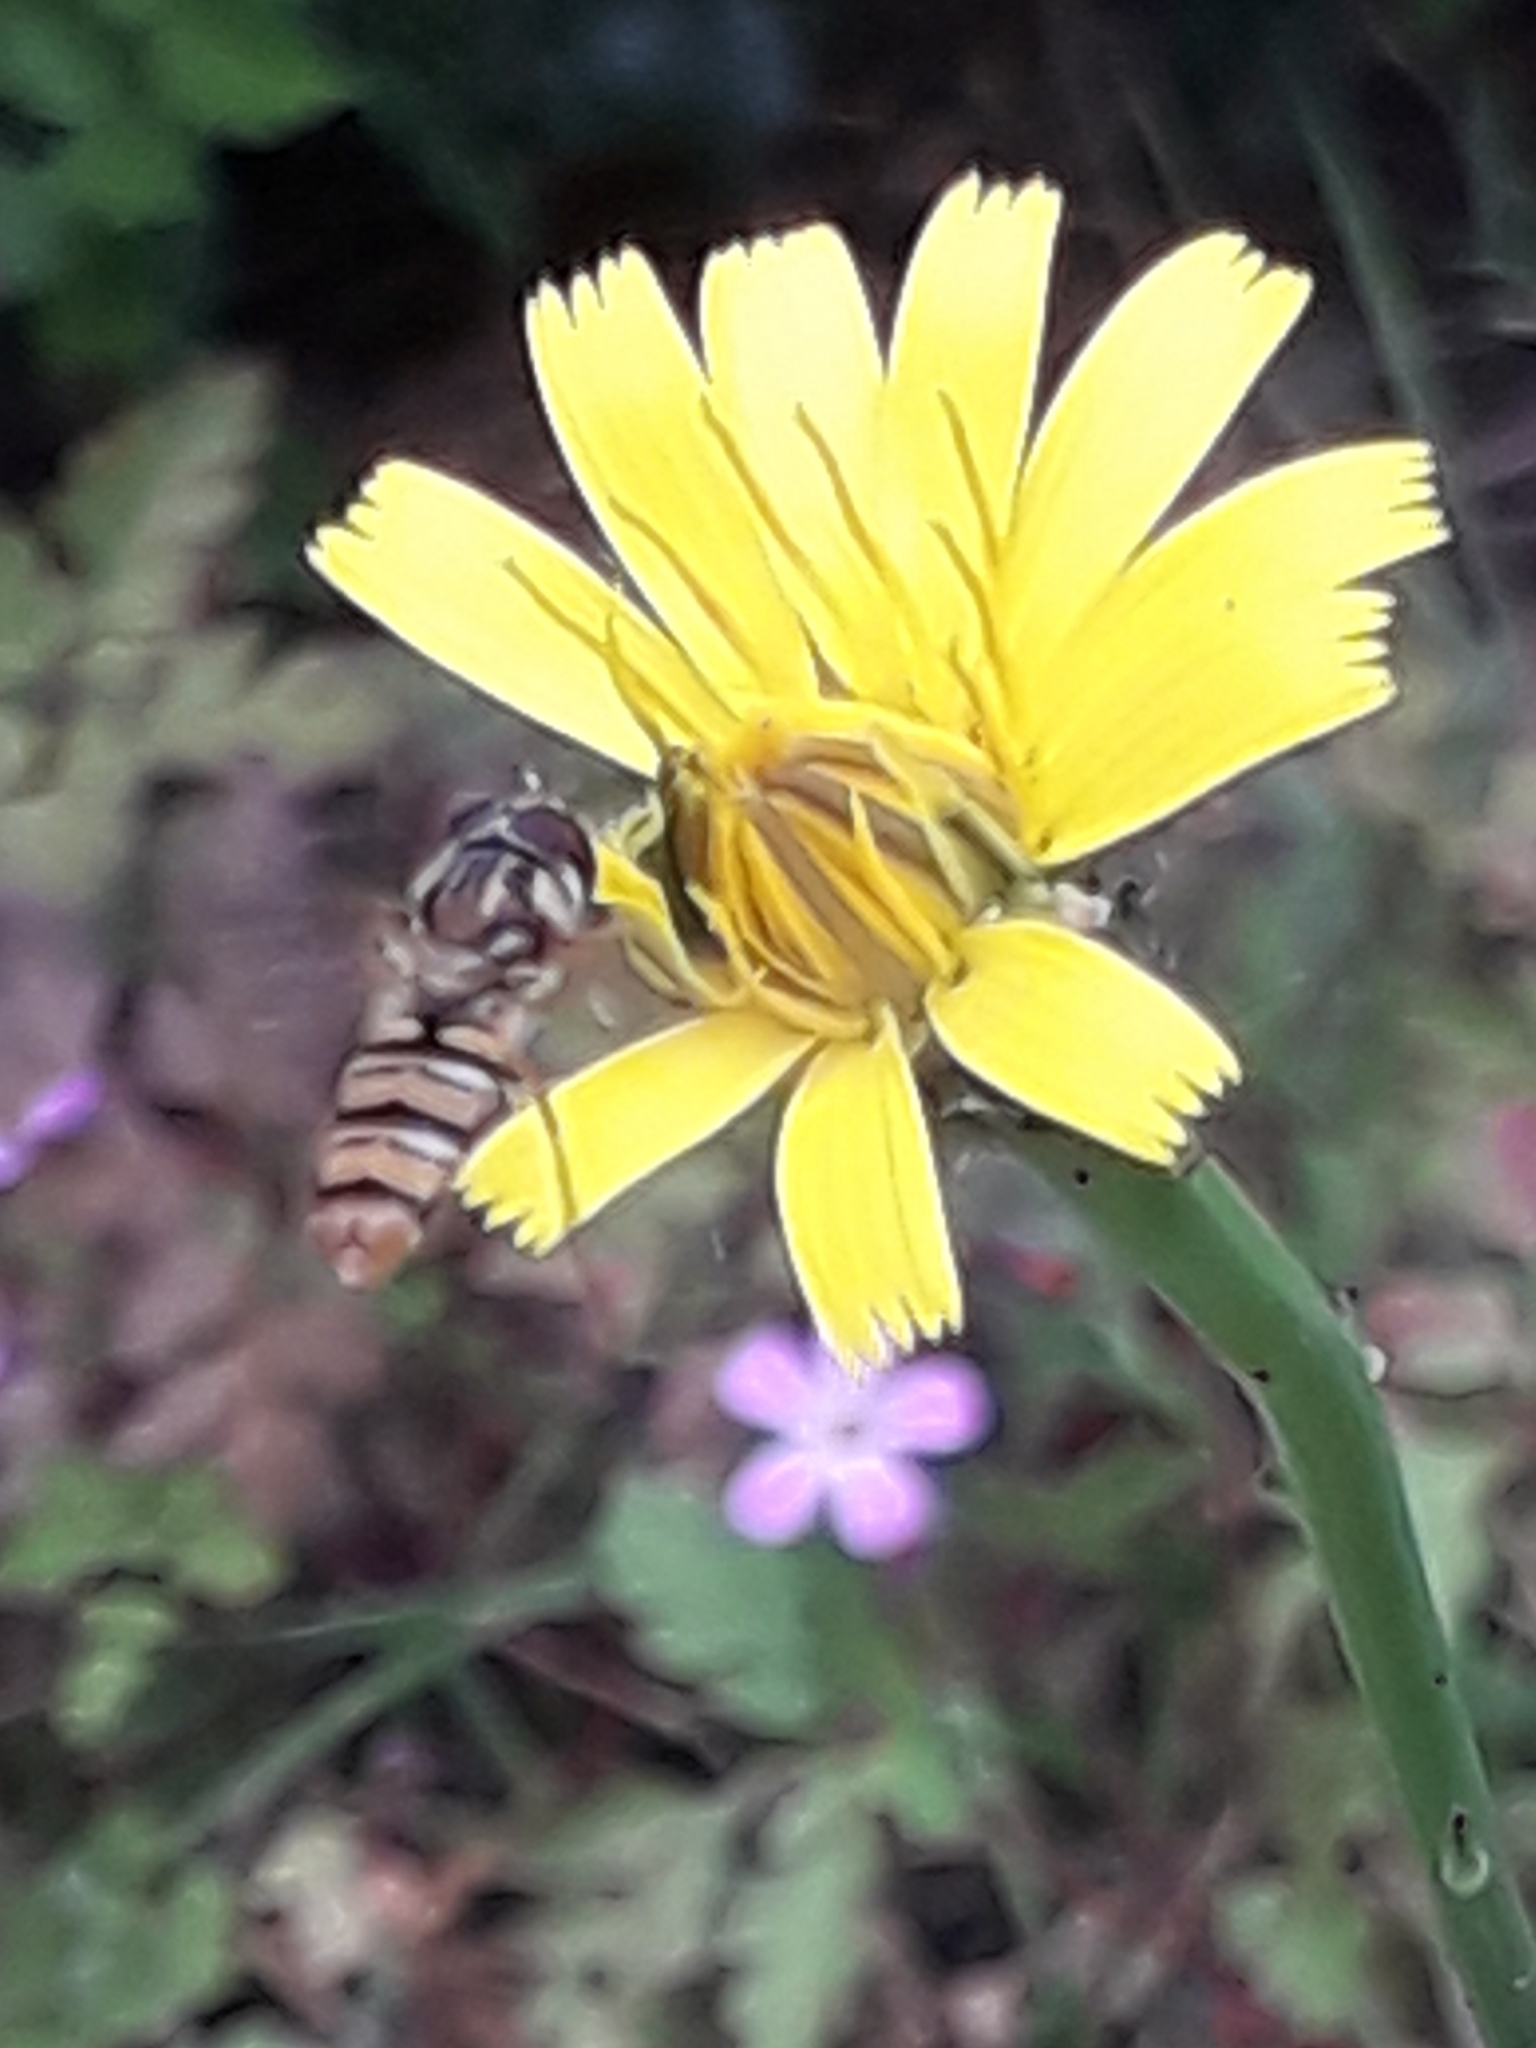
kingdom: Animalia
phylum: Arthropoda
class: Insecta
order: Diptera
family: Syrphidae
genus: Episyrphus
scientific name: Episyrphus balteatus
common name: Marmalade hoverfly
